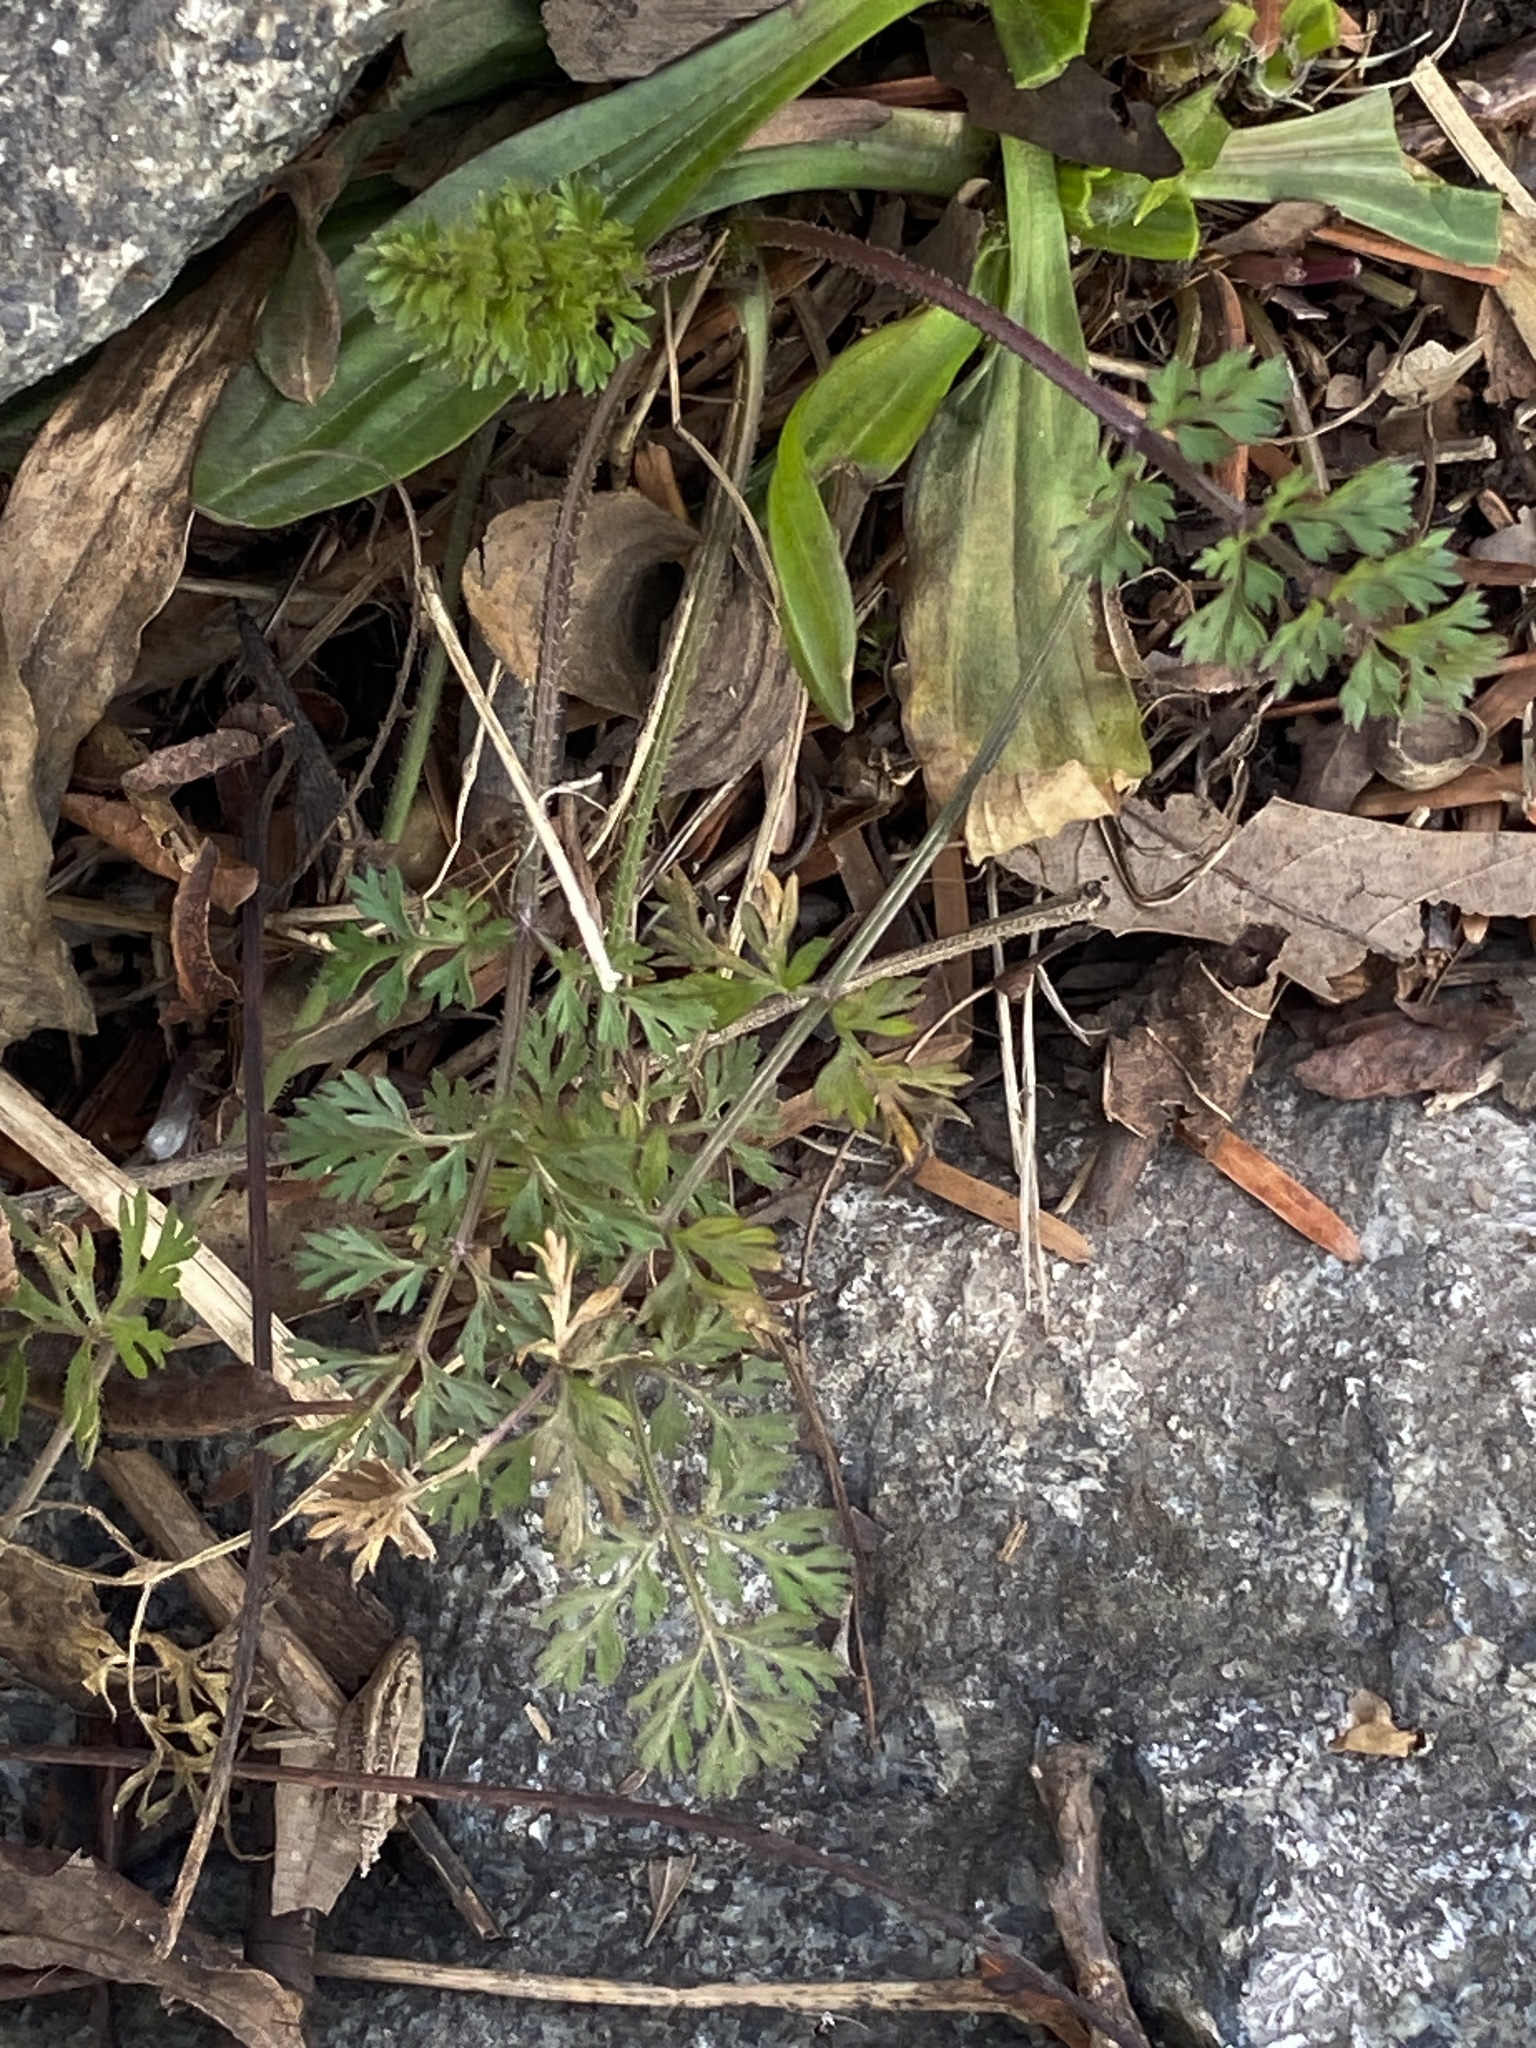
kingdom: Plantae
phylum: Tracheophyta
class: Magnoliopsida
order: Apiales
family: Apiaceae
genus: Daucus
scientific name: Daucus carota
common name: Wild carrot
